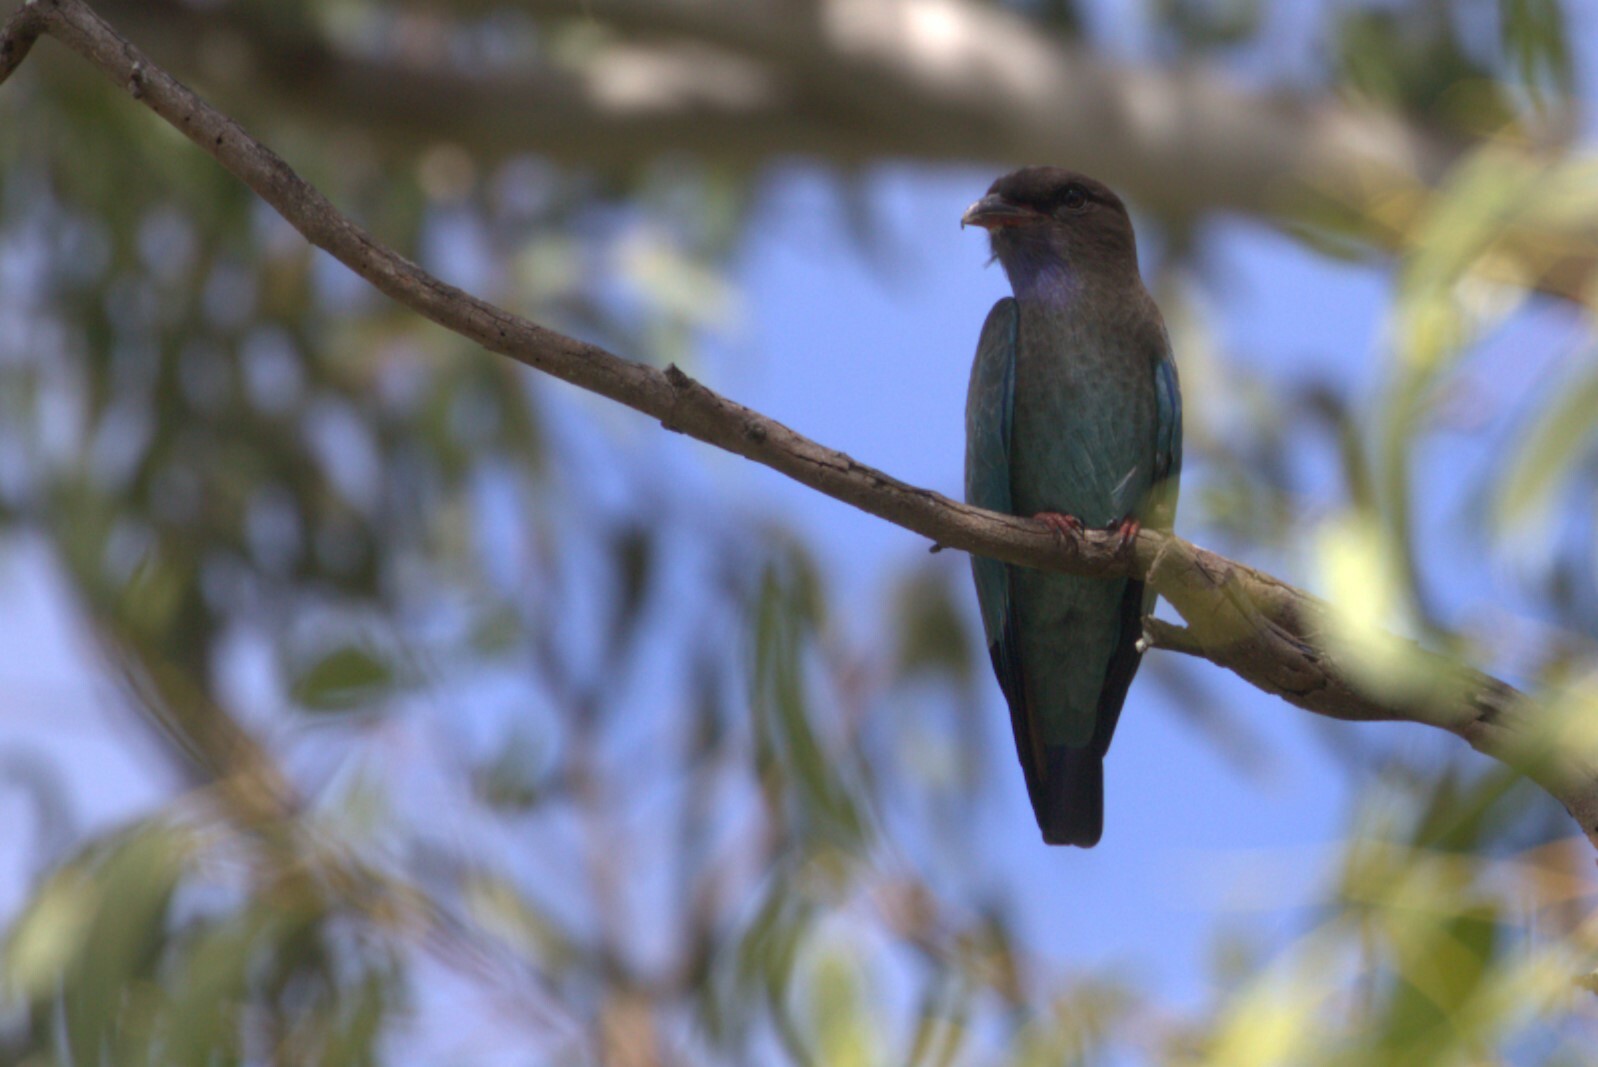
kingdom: Animalia
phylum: Chordata
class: Aves
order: Coraciiformes
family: Coraciidae
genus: Eurystomus
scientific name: Eurystomus orientalis
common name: Oriental dollarbird
